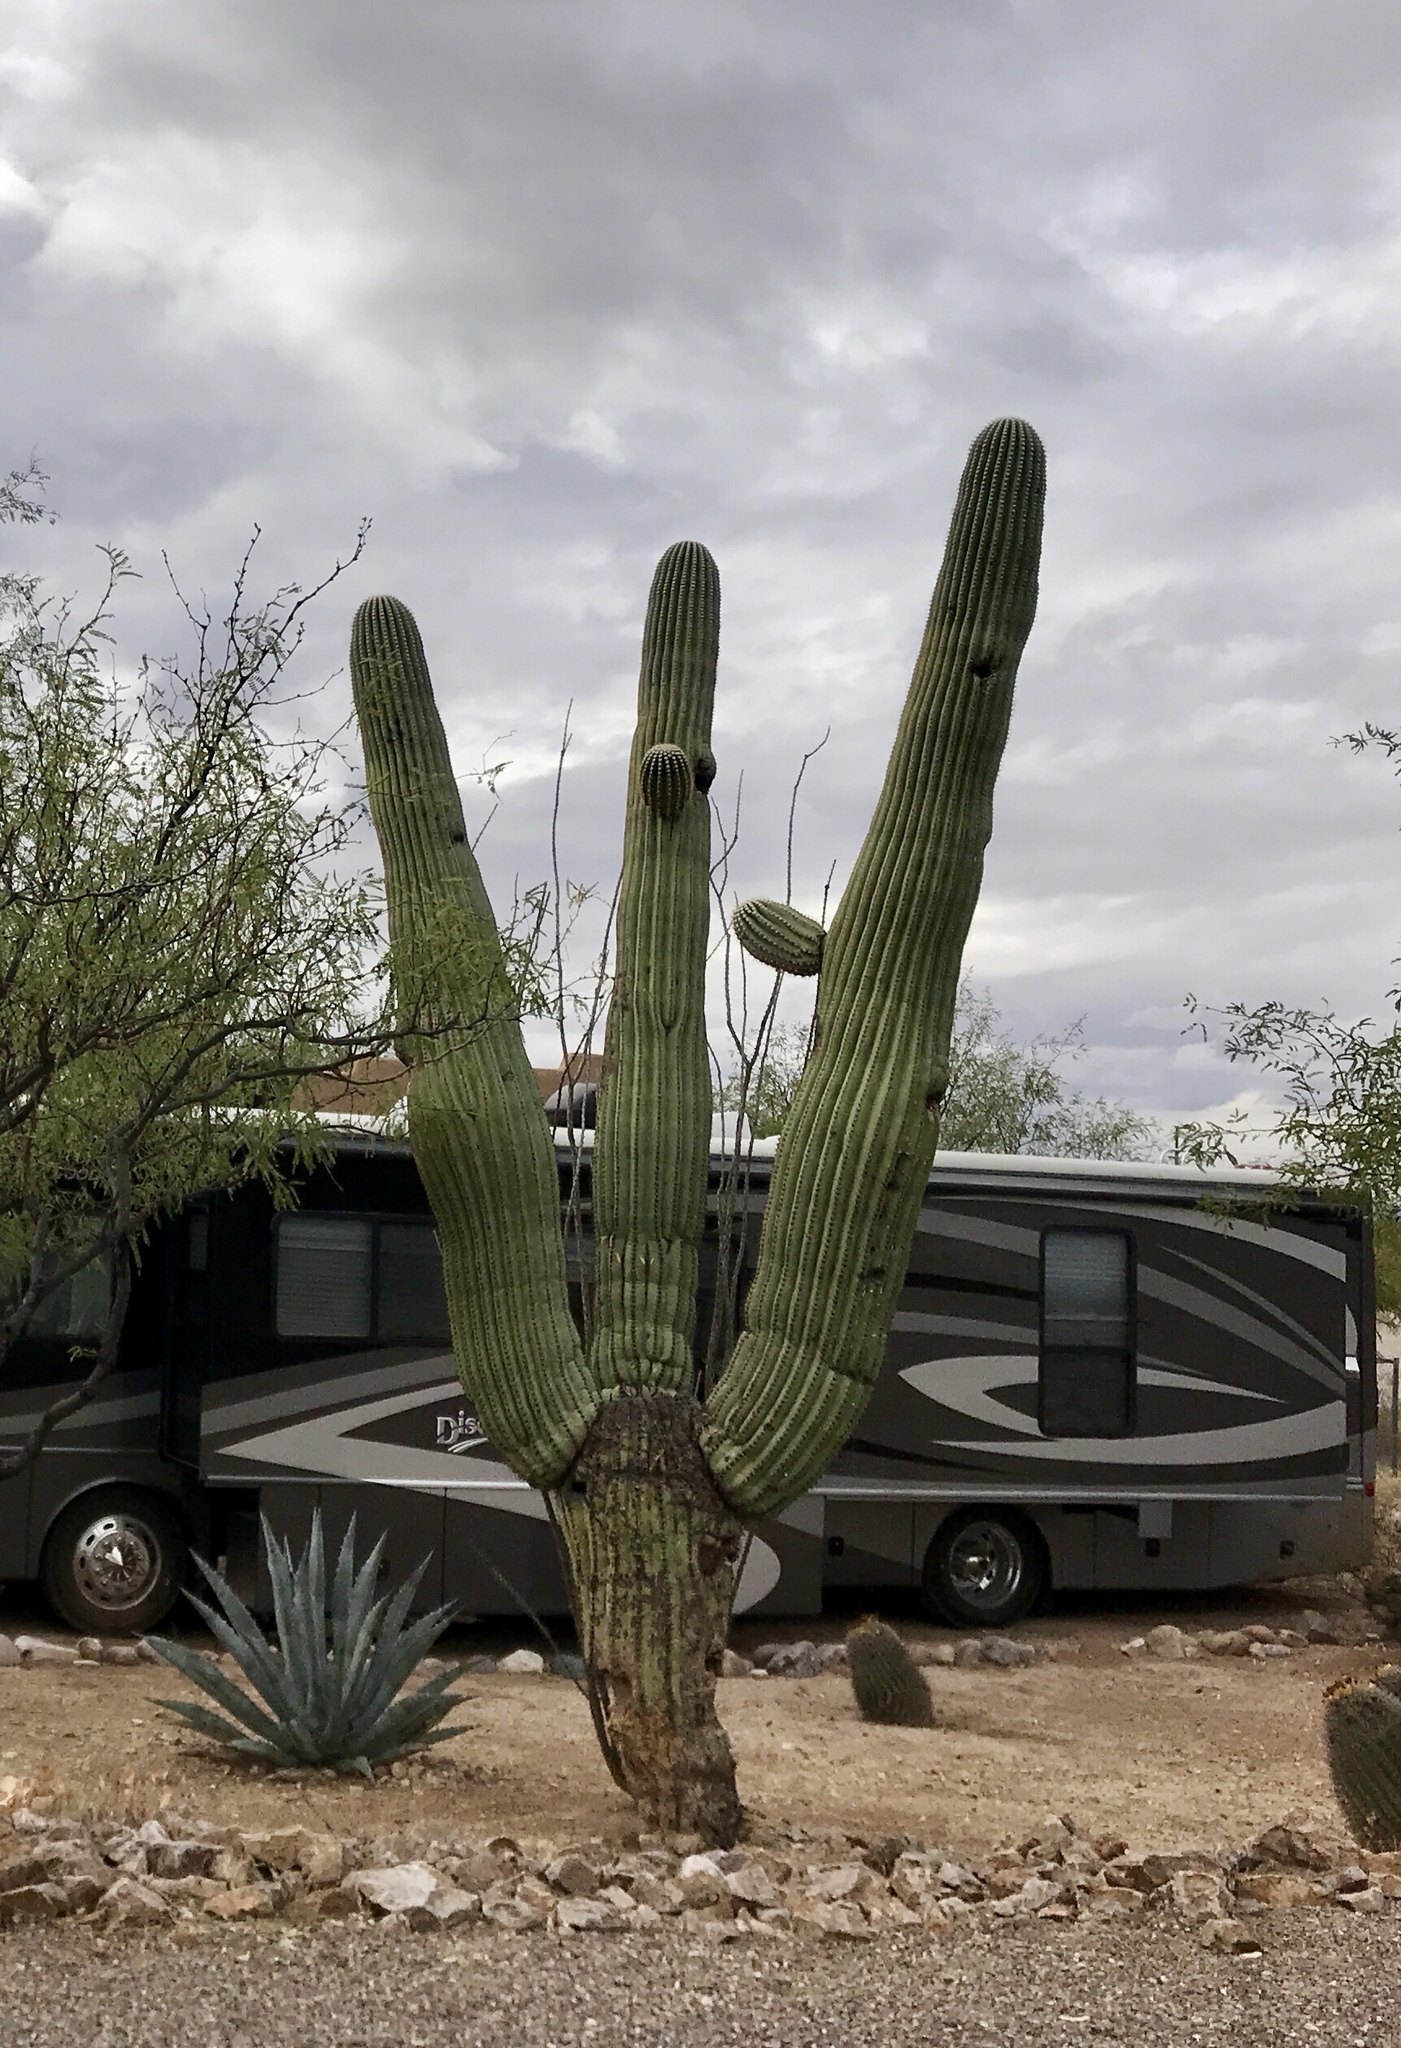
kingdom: Plantae
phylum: Tracheophyta
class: Magnoliopsida
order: Caryophyllales
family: Cactaceae
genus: Carnegiea
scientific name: Carnegiea gigantea
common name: Saguaro
